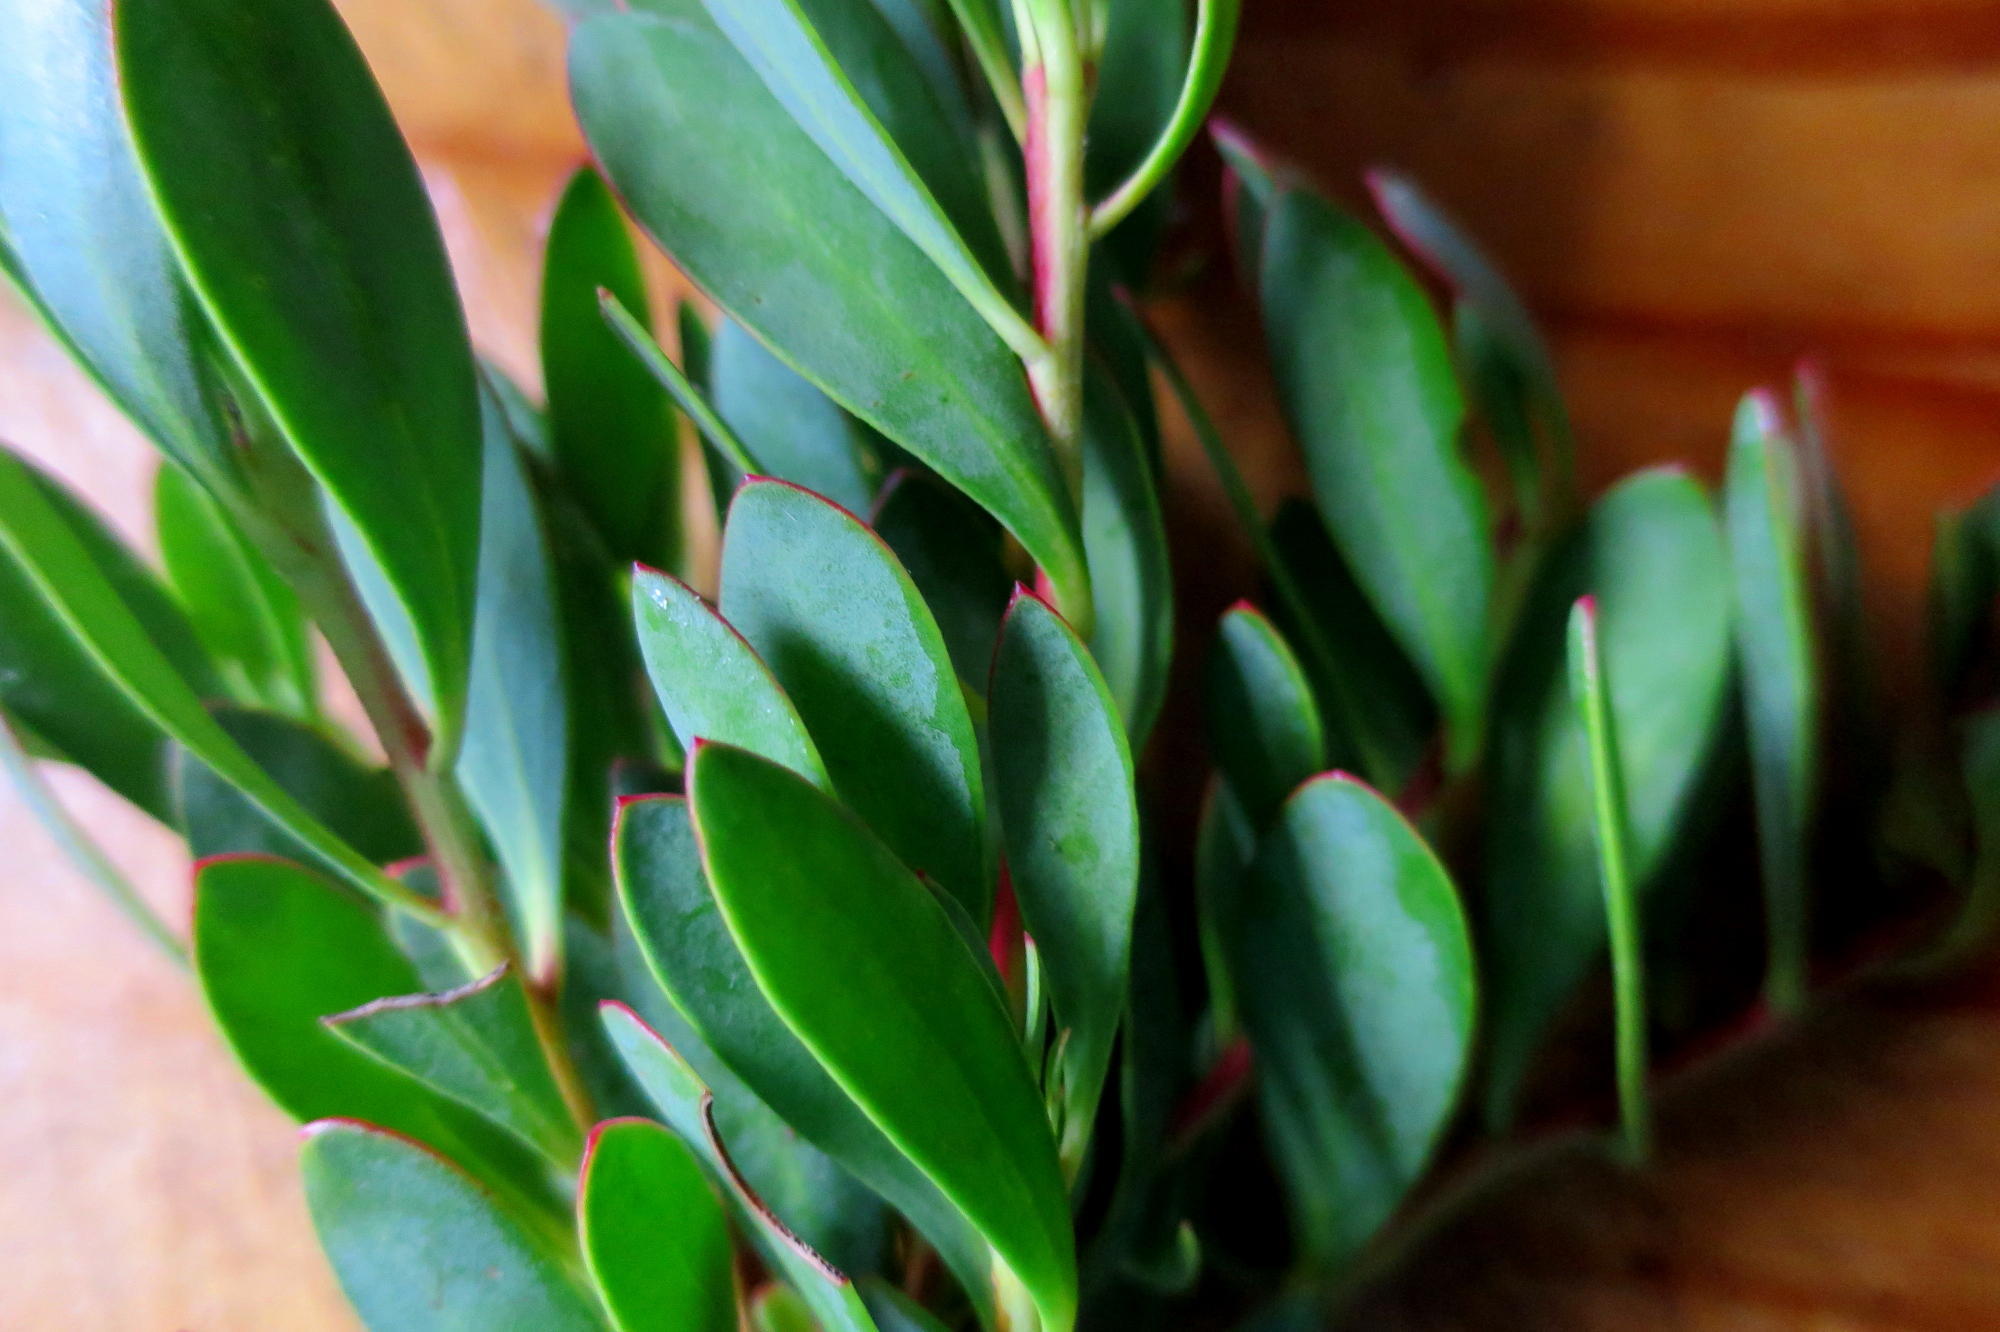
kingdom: Plantae
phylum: Tracheophyta
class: Magnoliopsida
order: Proteales
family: Proteaceae
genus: Protea
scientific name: Protea venusta
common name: Cascade sugarbush
